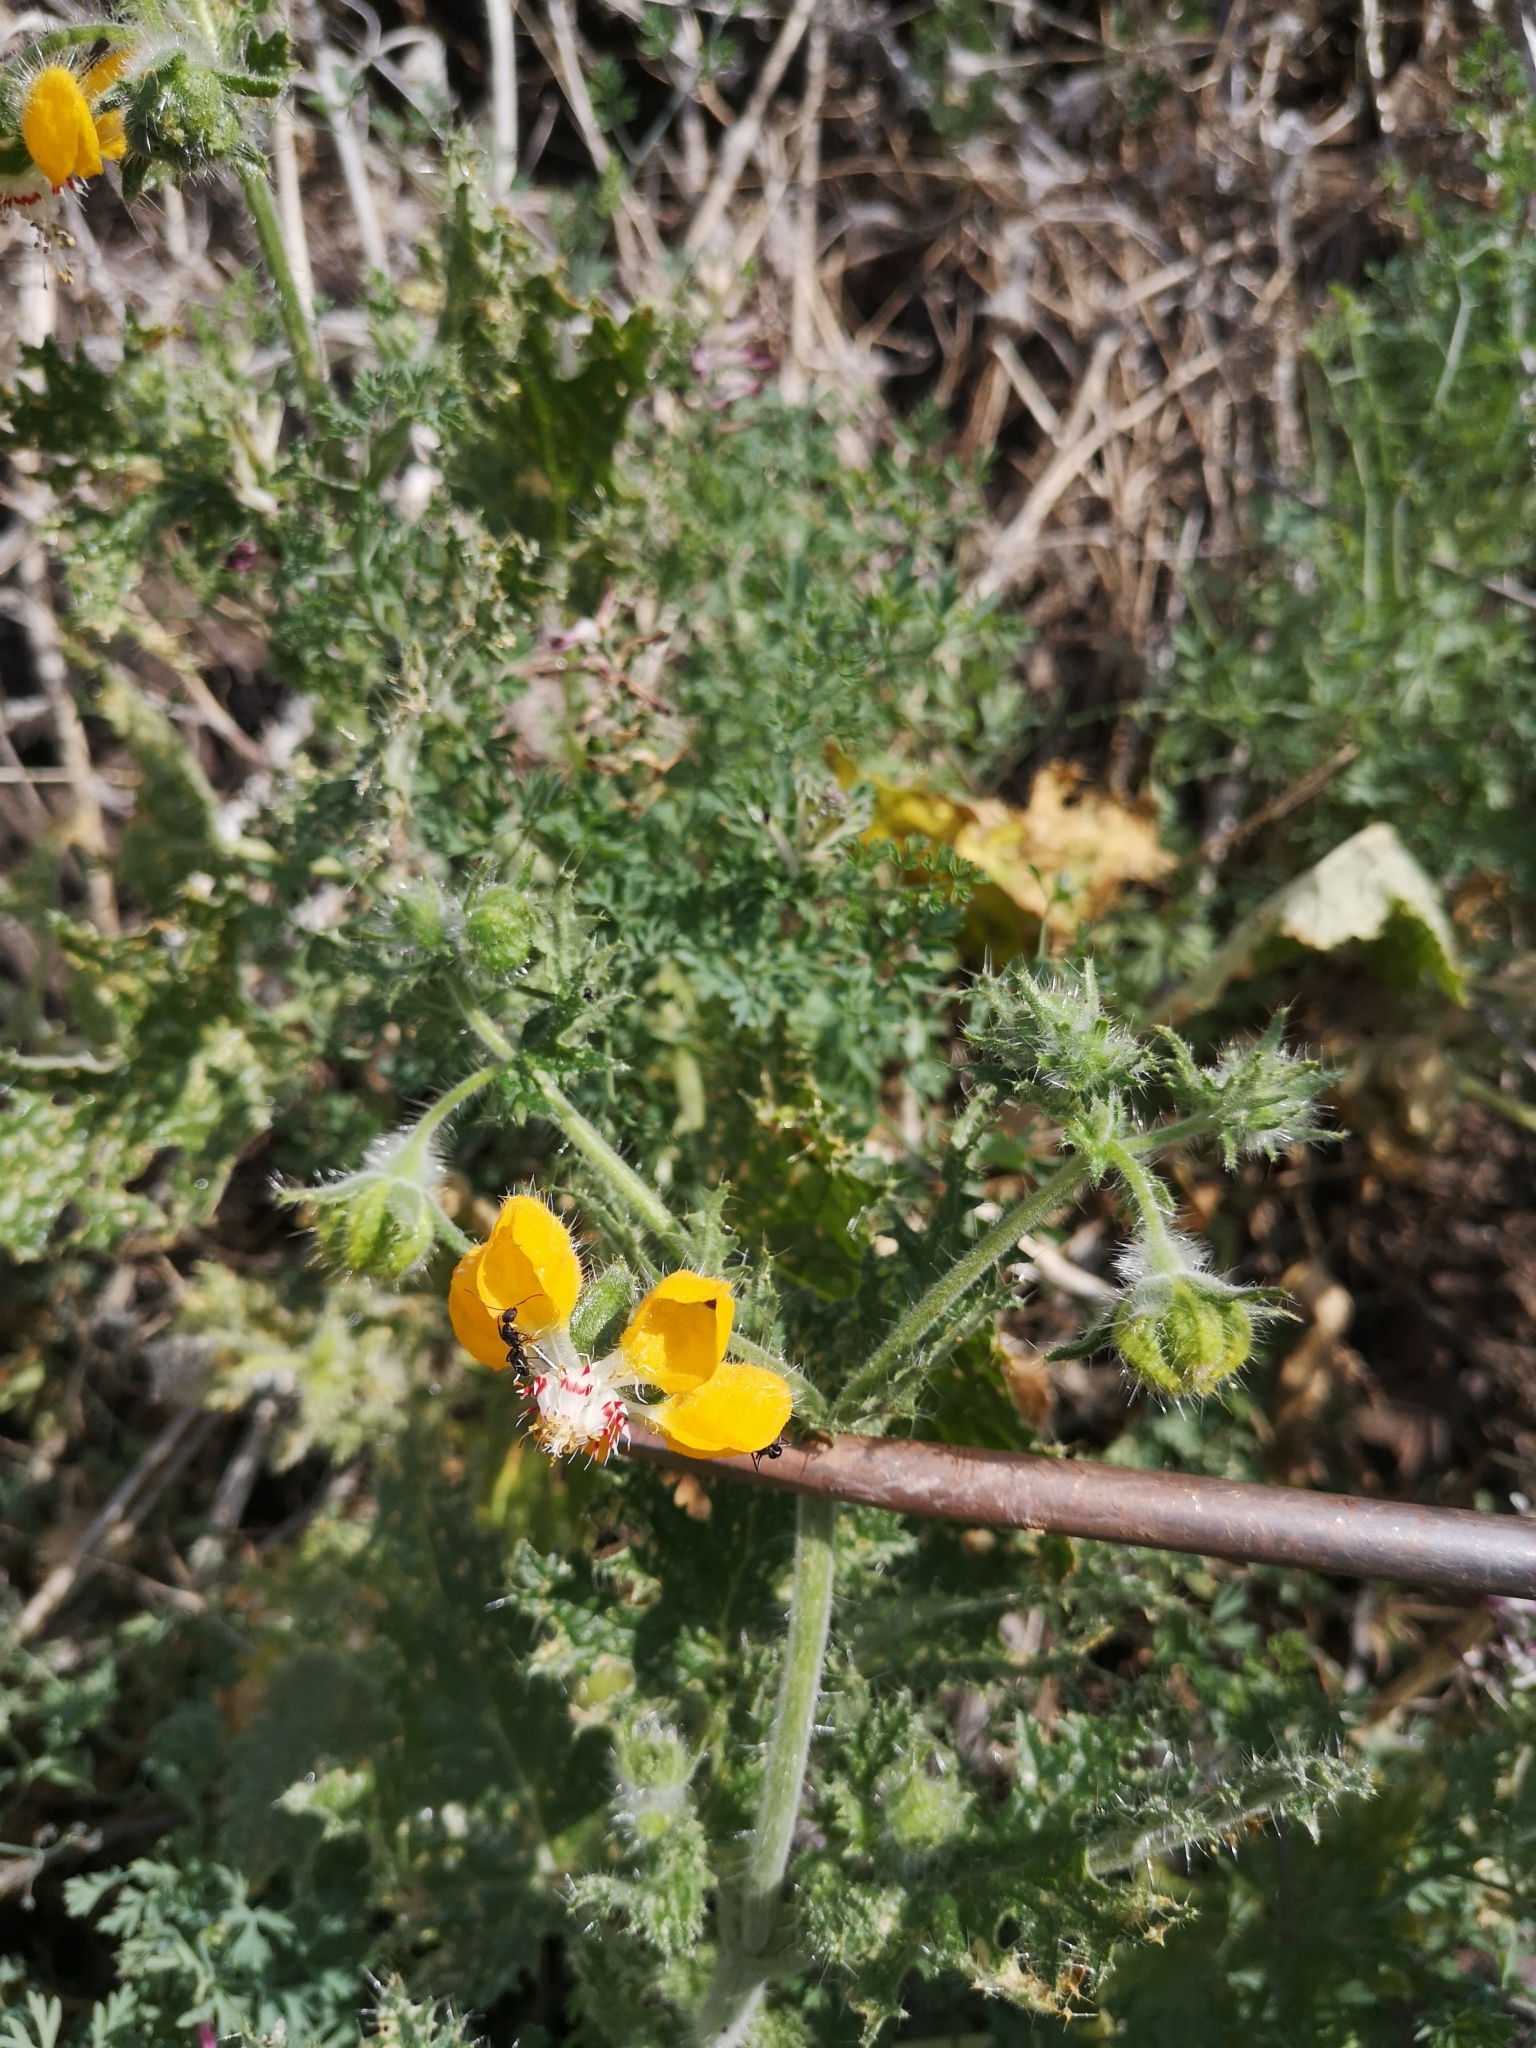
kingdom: Plantae
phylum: Tracheophyta
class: Magnoliopsida
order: Cornales
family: Loasaceae
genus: Loasa
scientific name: Loasa placei
